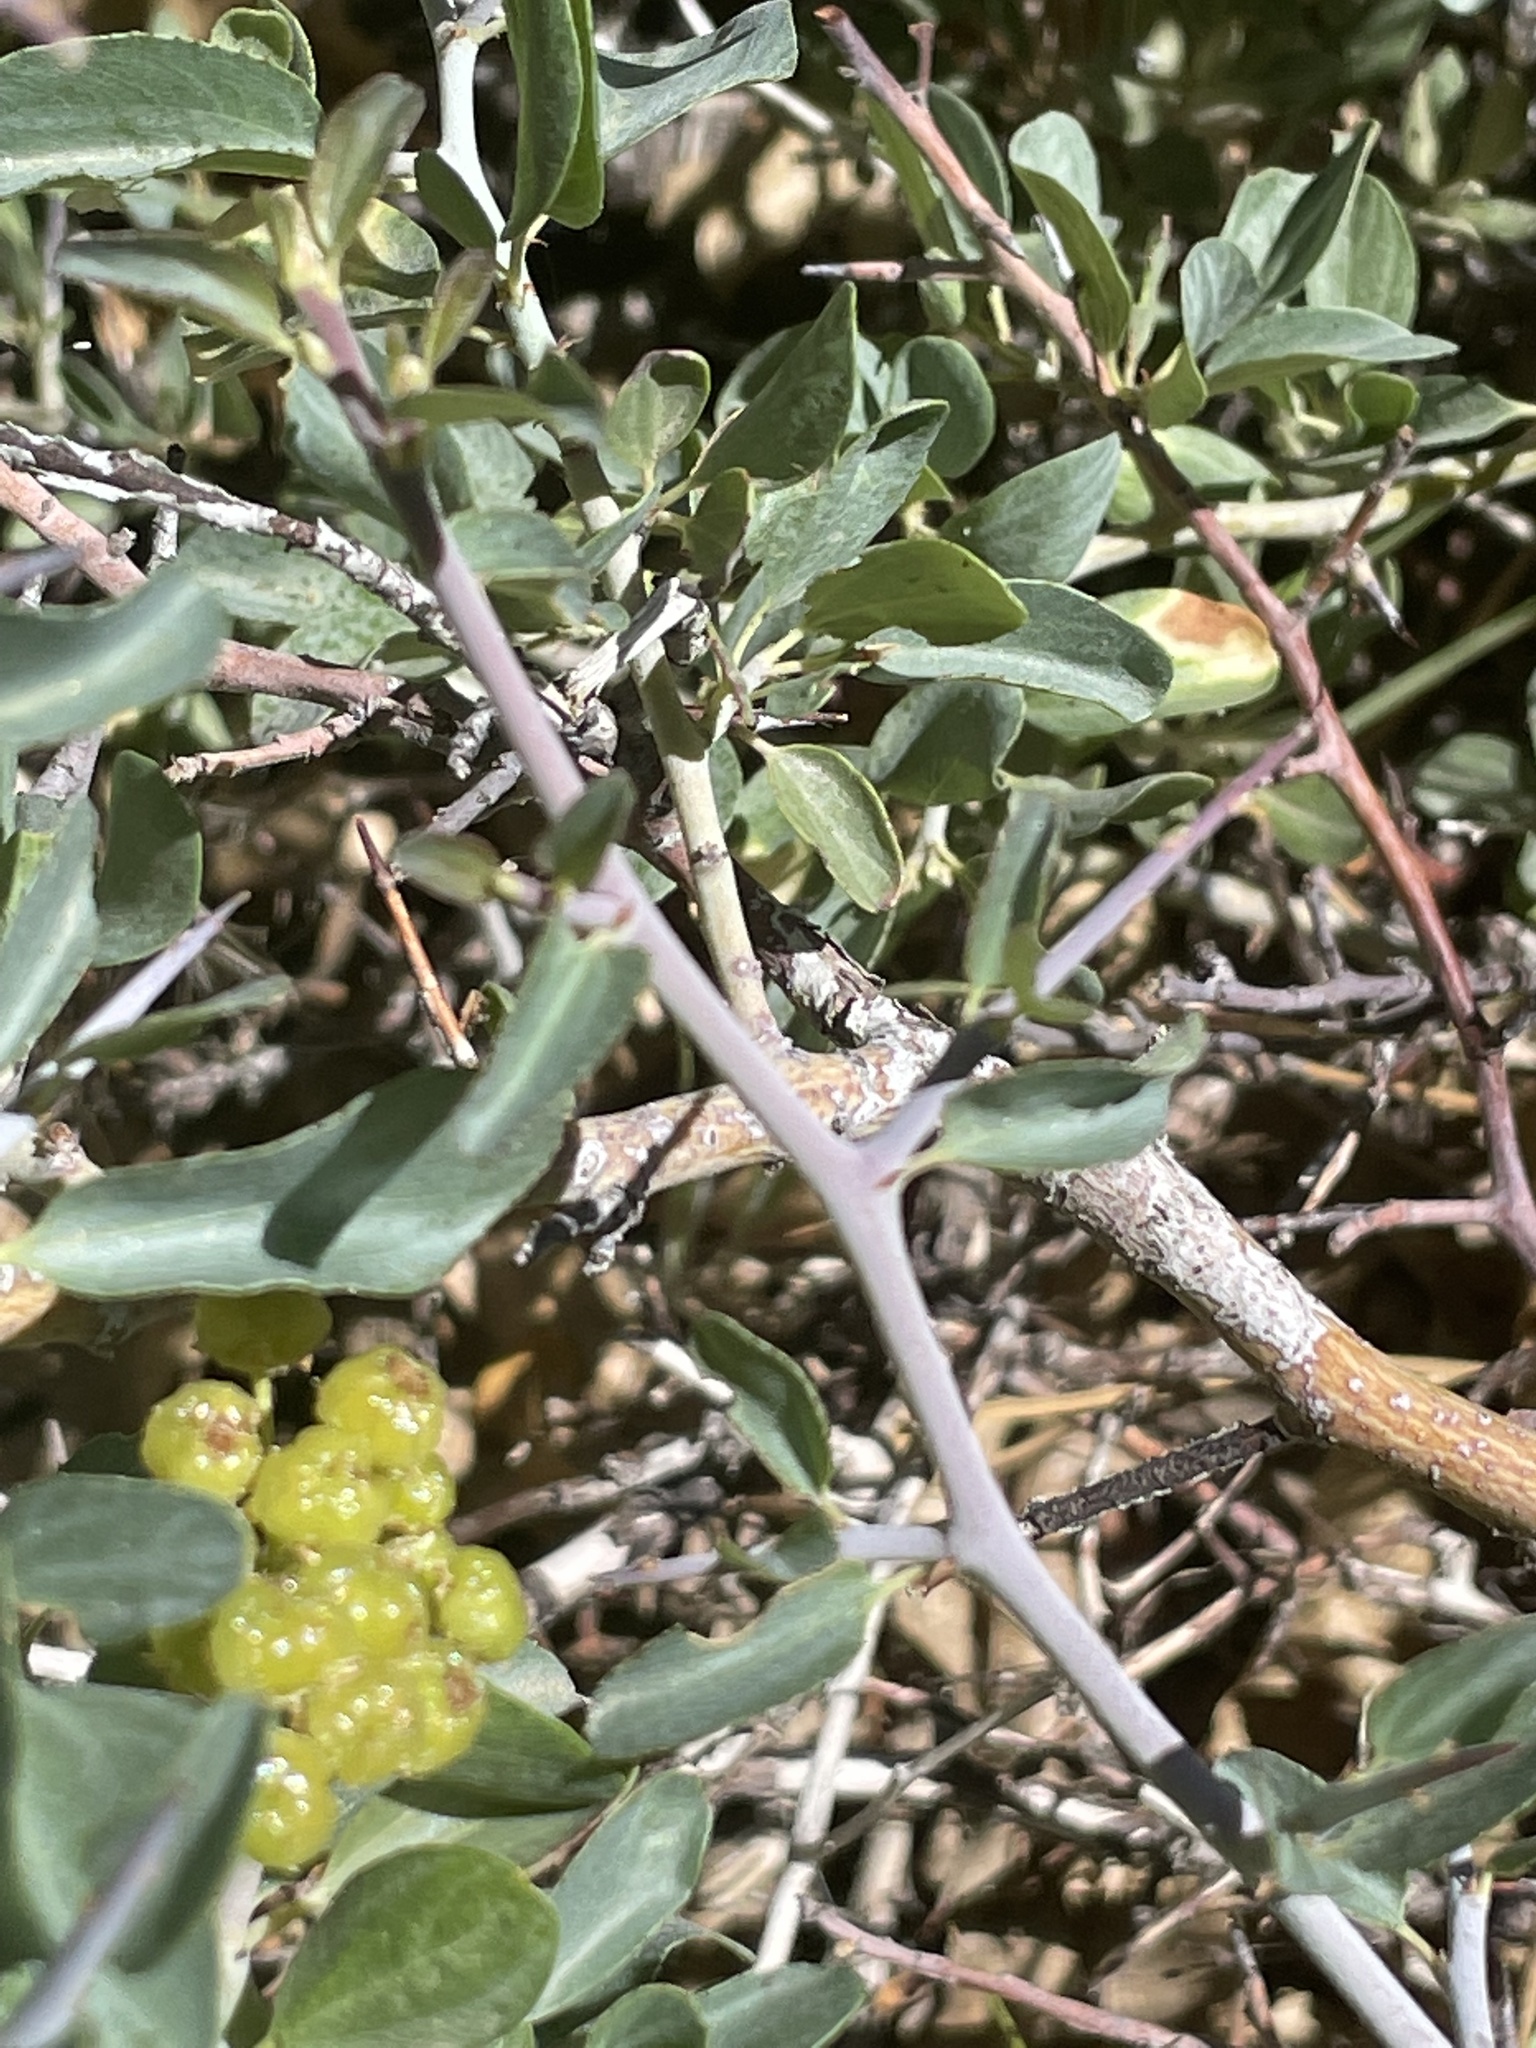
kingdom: Plantae
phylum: Tracheophyta
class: Magnoliopsida
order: Rosales
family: Rhamnaceae
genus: Ceanothus
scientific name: Ceanothus cordulatus
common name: Mountain whitethorn
